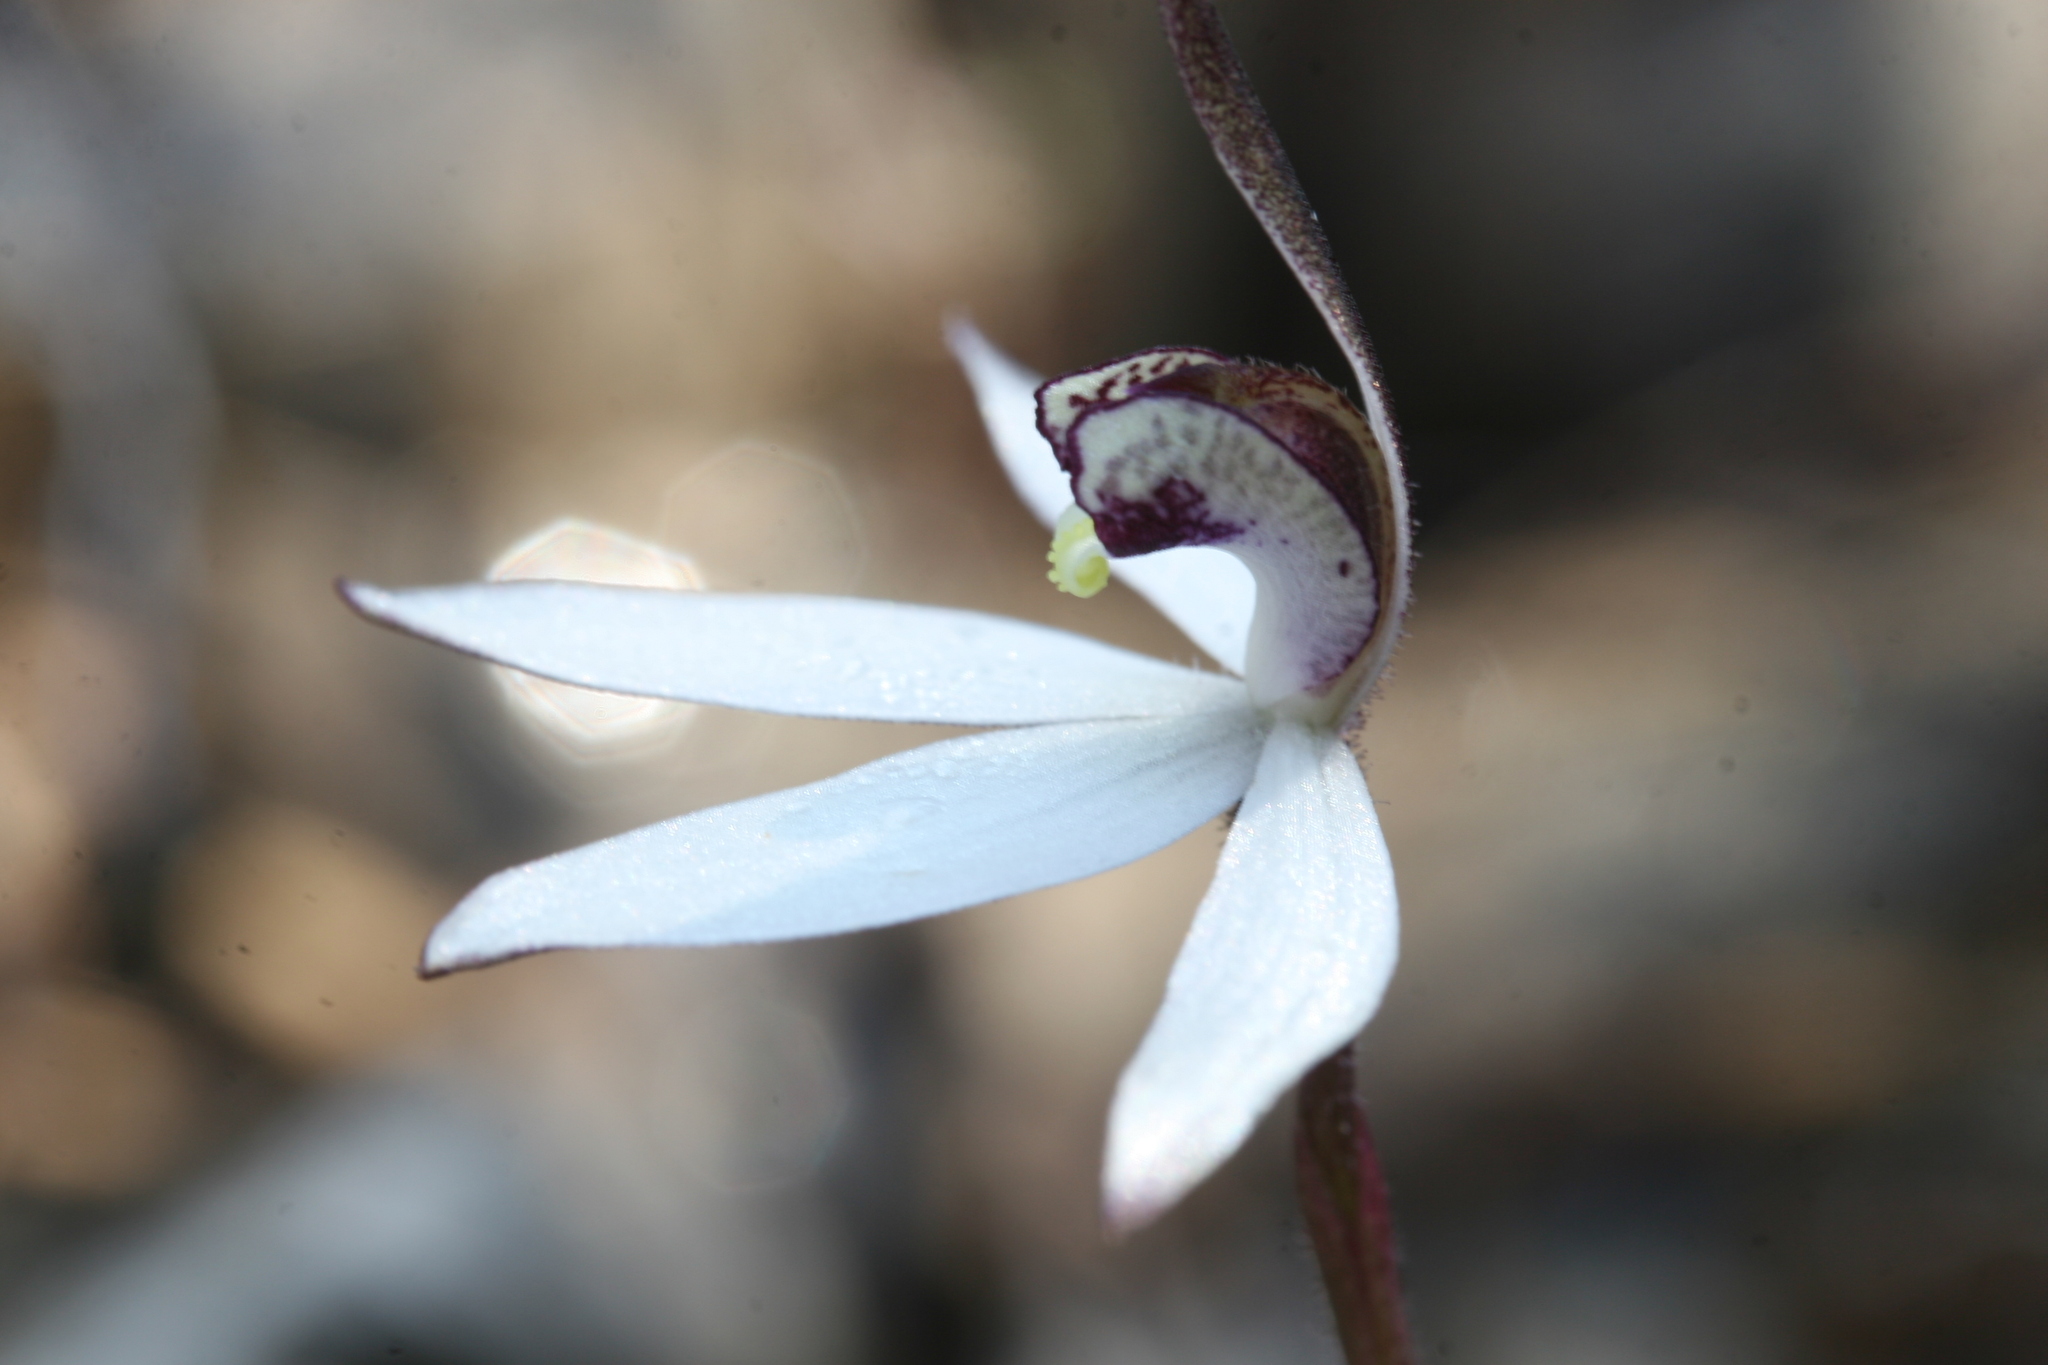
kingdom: Plantae
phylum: Tracheophyta
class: Liliopsida
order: Asparagales
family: Orchidaceae
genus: Caladenia
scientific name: Caladenia saccharata
